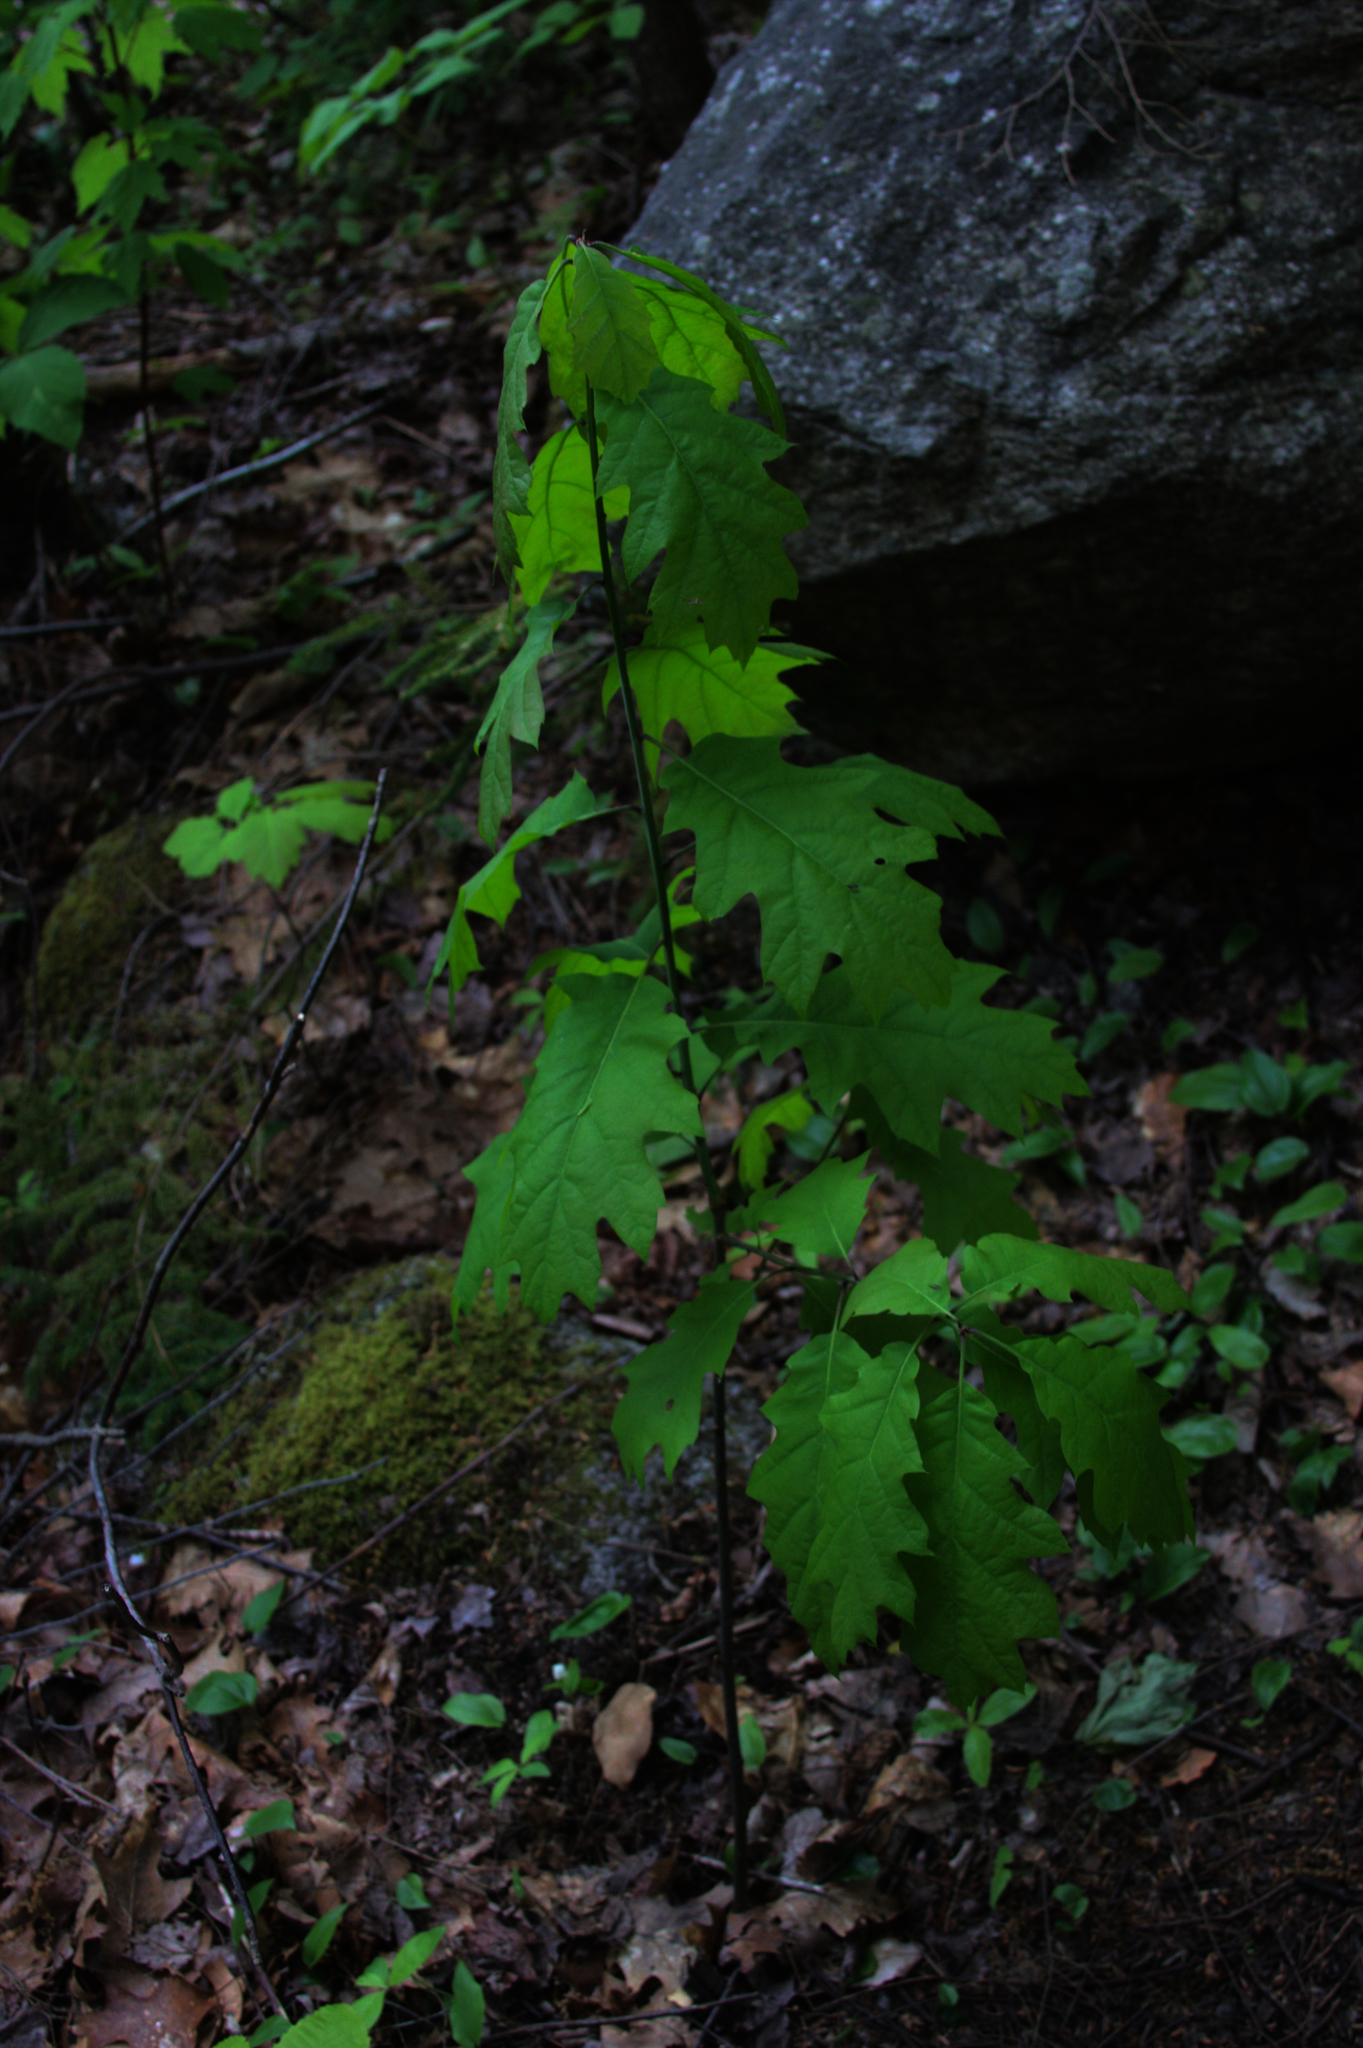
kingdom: Plantae
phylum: Tracheophyta
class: Magnoliopsida
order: Fagales
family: Fagaceae
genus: Quercus
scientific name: Quercus rubra
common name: Red oak
